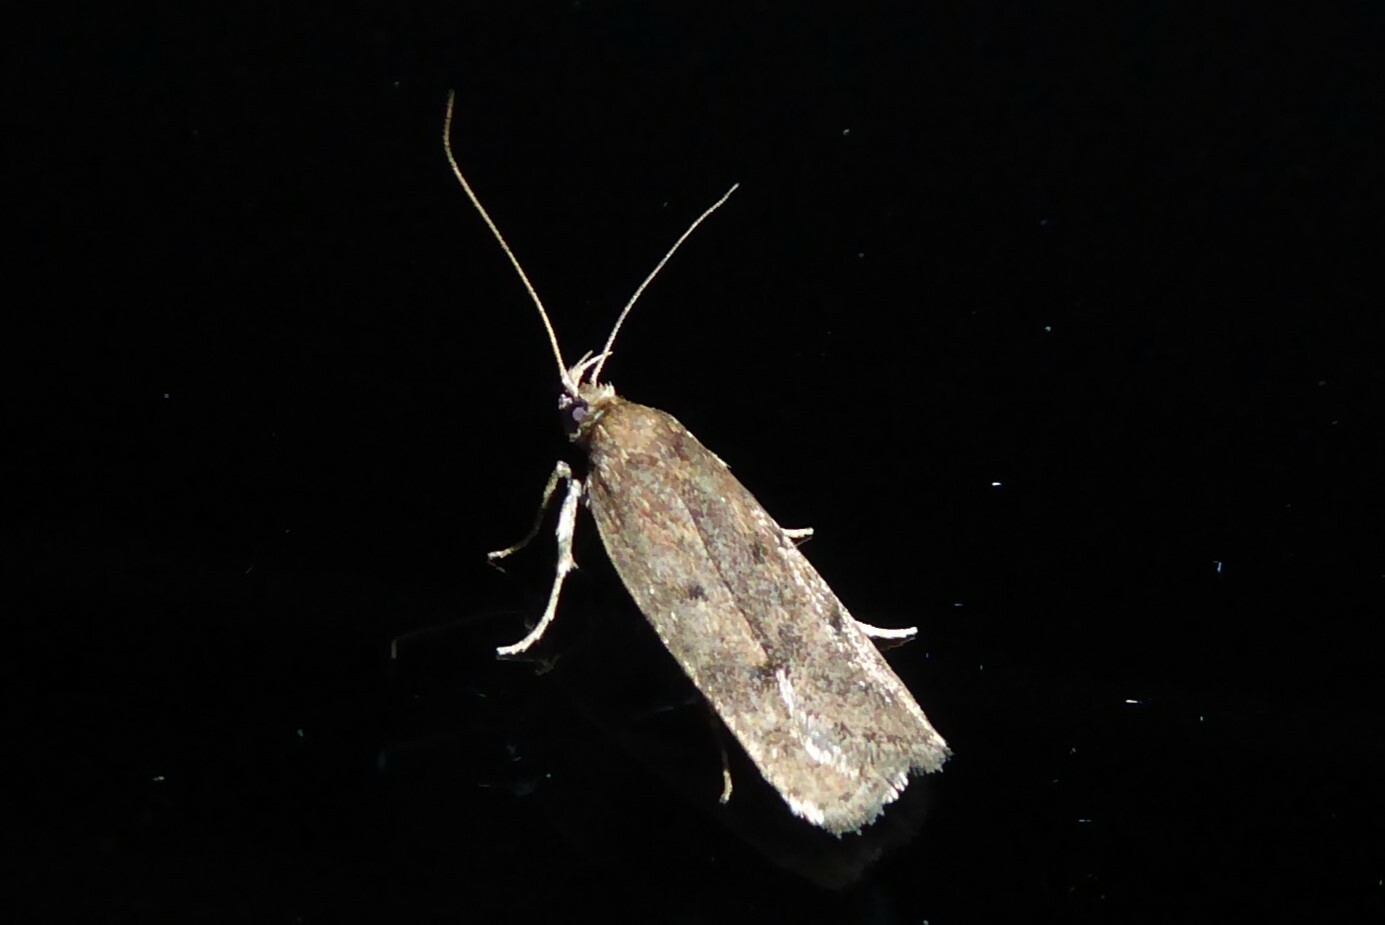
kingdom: Animalia
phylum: Arthropoda
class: Insecta
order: Lepidoptera
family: Depressariidae
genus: Phaeosaces
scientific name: Phaeosaces apocrypta
